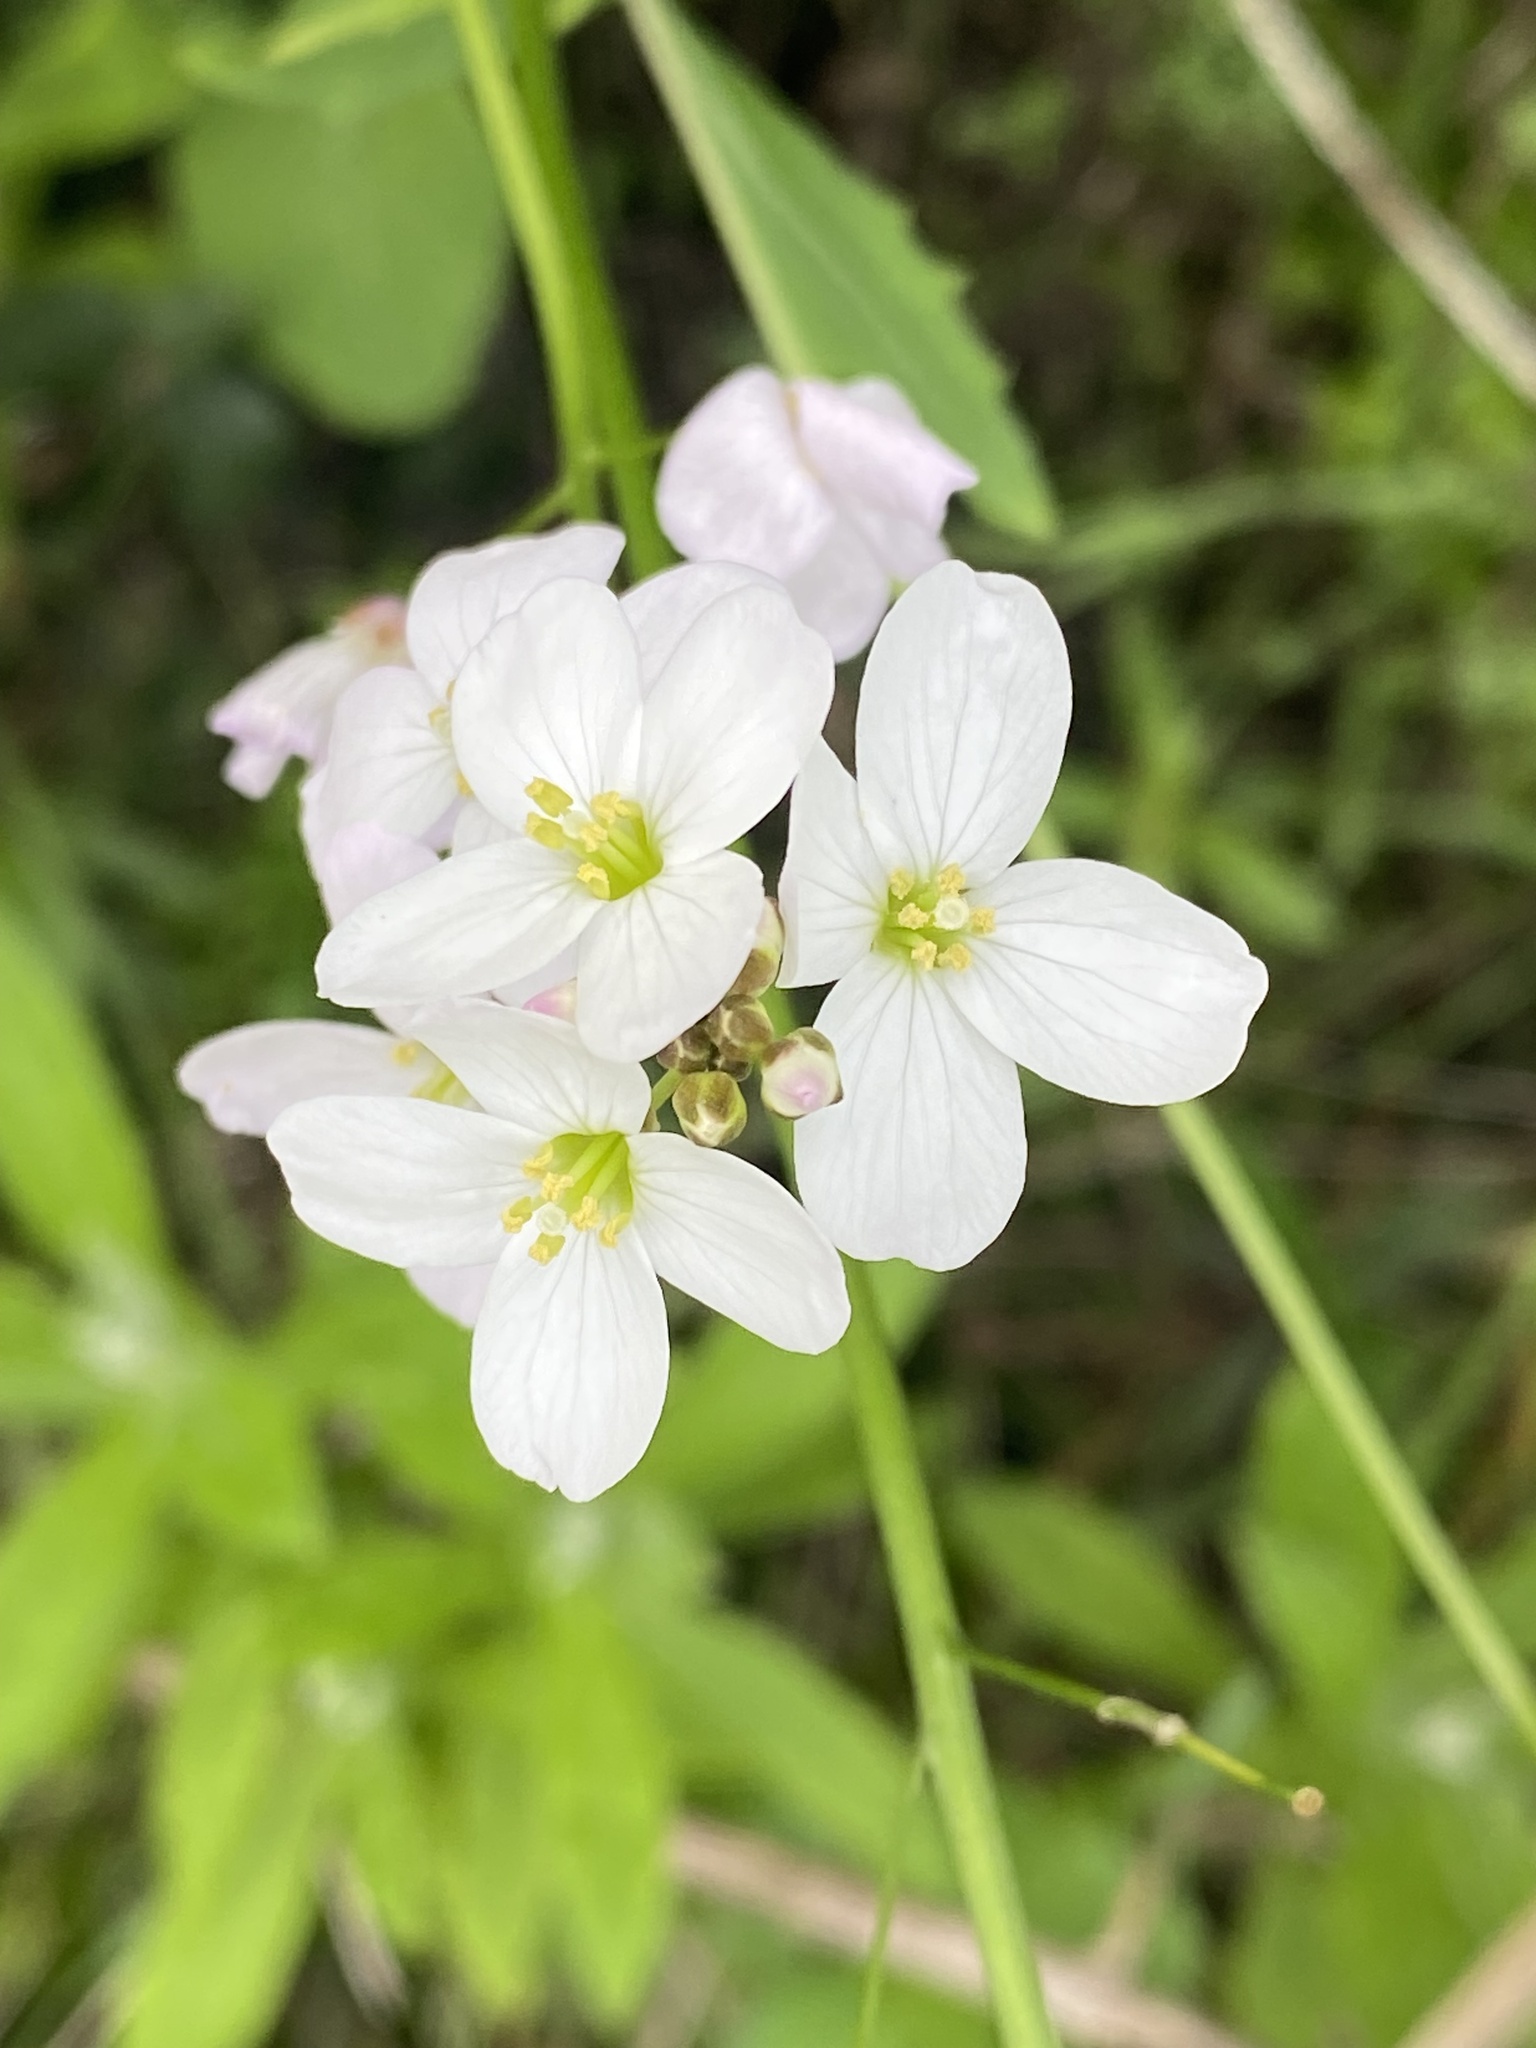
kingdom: Plantae
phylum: Tracheophyta
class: Magnoliopsida
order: Brassicales
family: Brassicaceae
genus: Cardamine
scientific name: Cardamine californica
